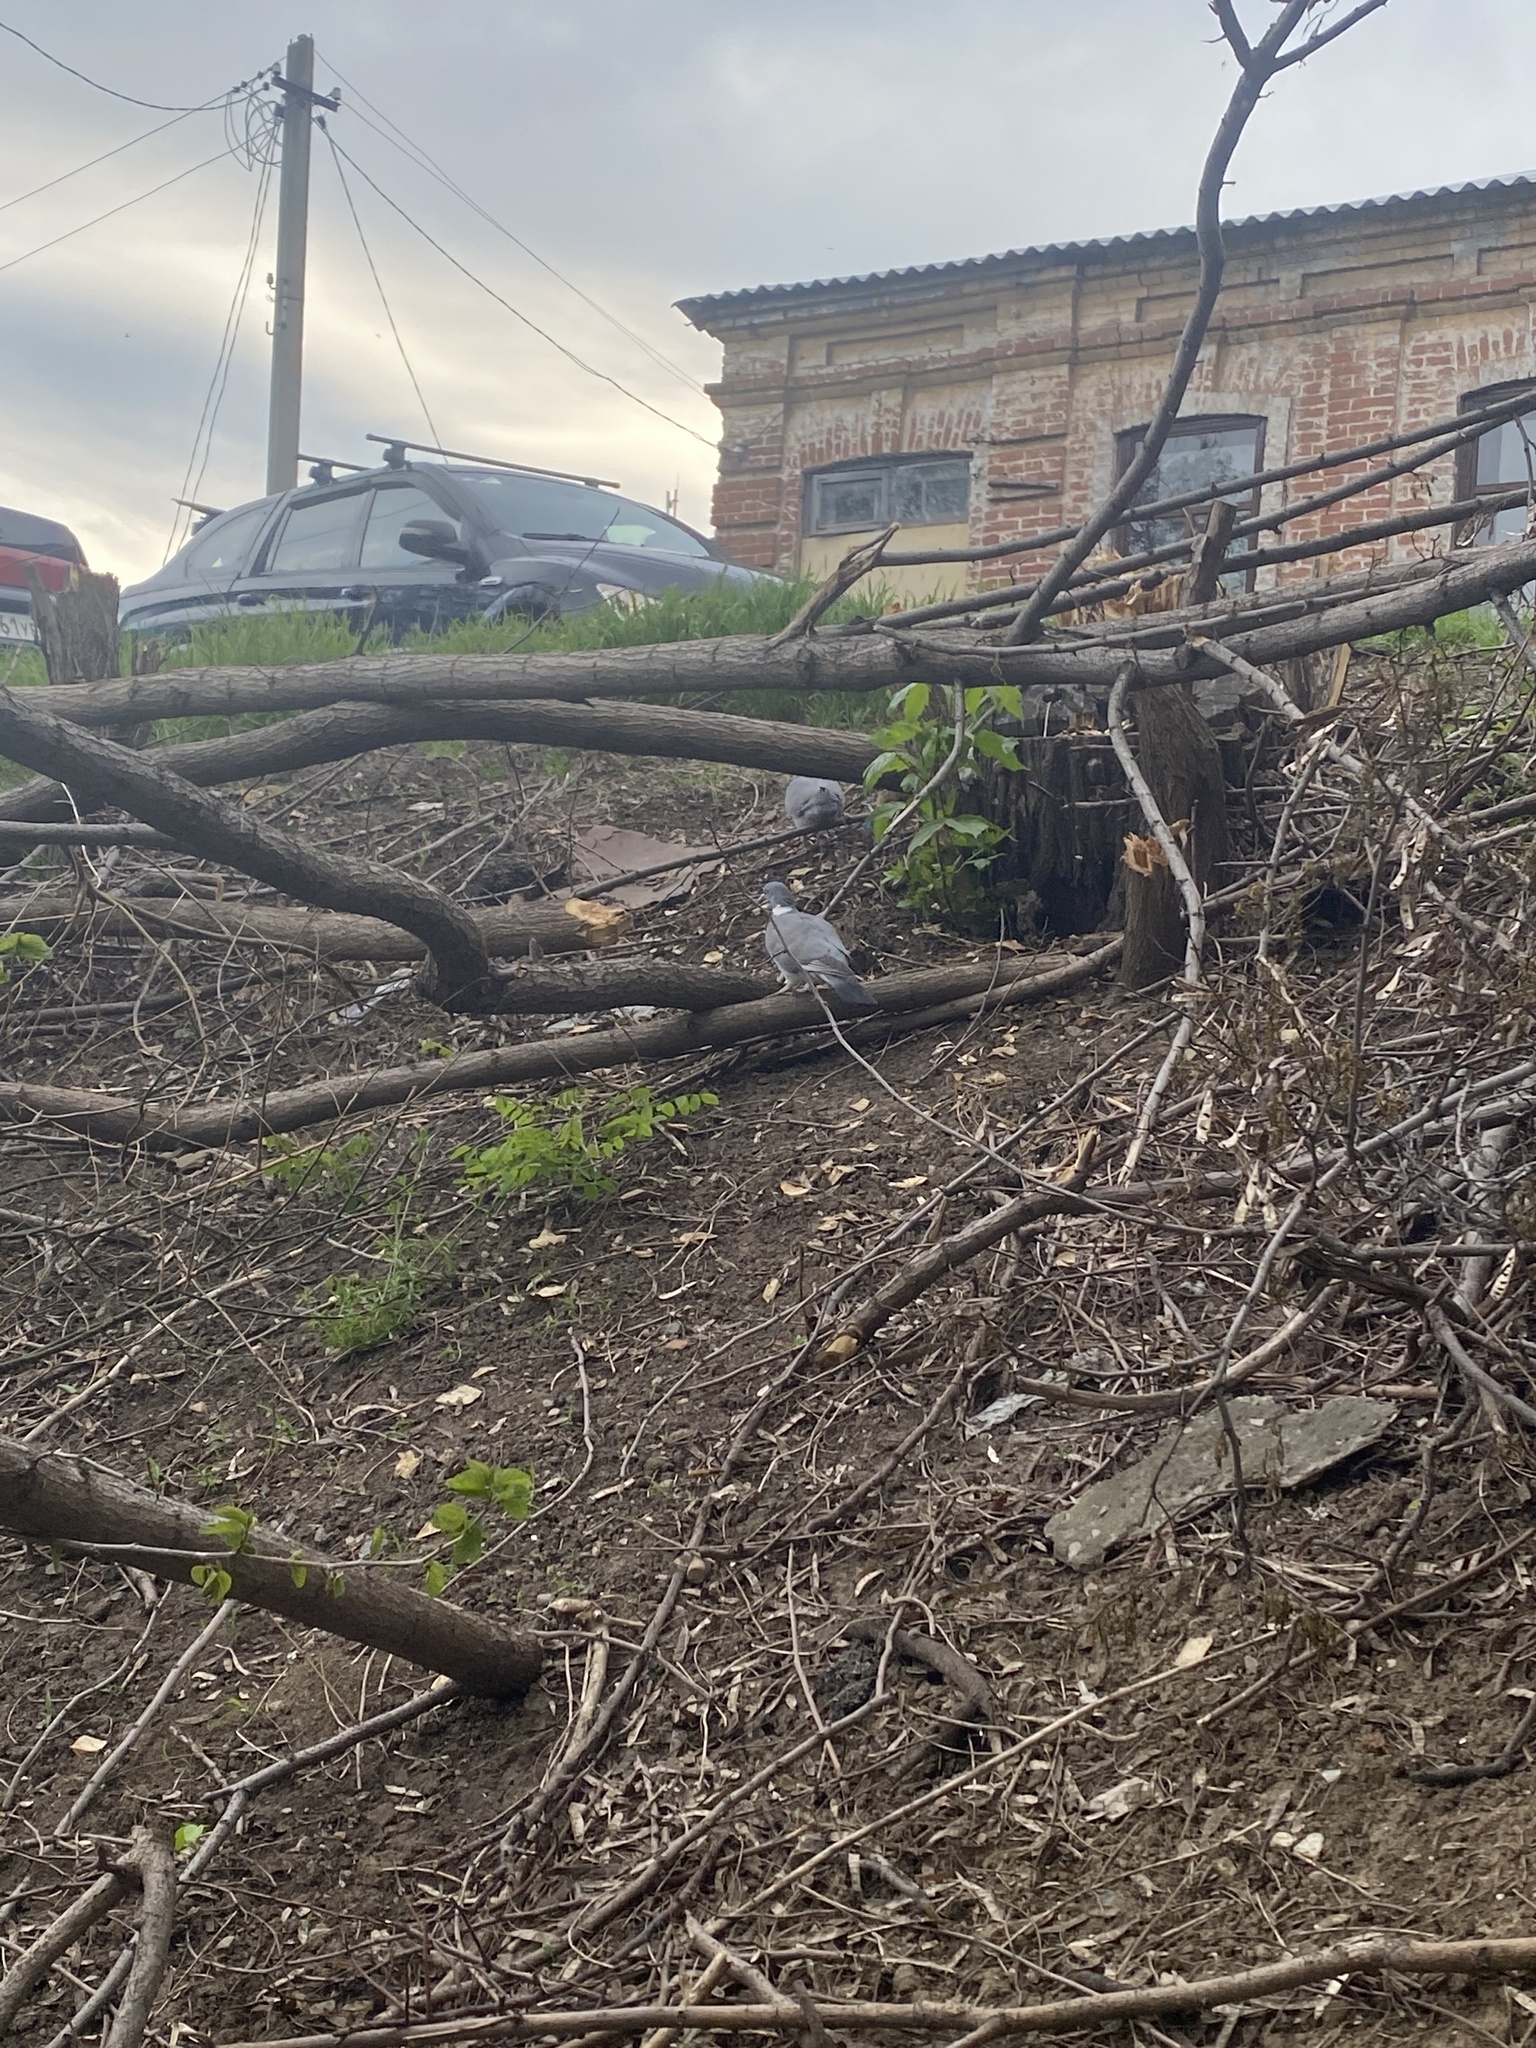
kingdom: Animalia
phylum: Chordata
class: Aves
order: Columbiformes
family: Columbidae
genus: Columba
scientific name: Columba palumbus
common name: Common wood pigeon
